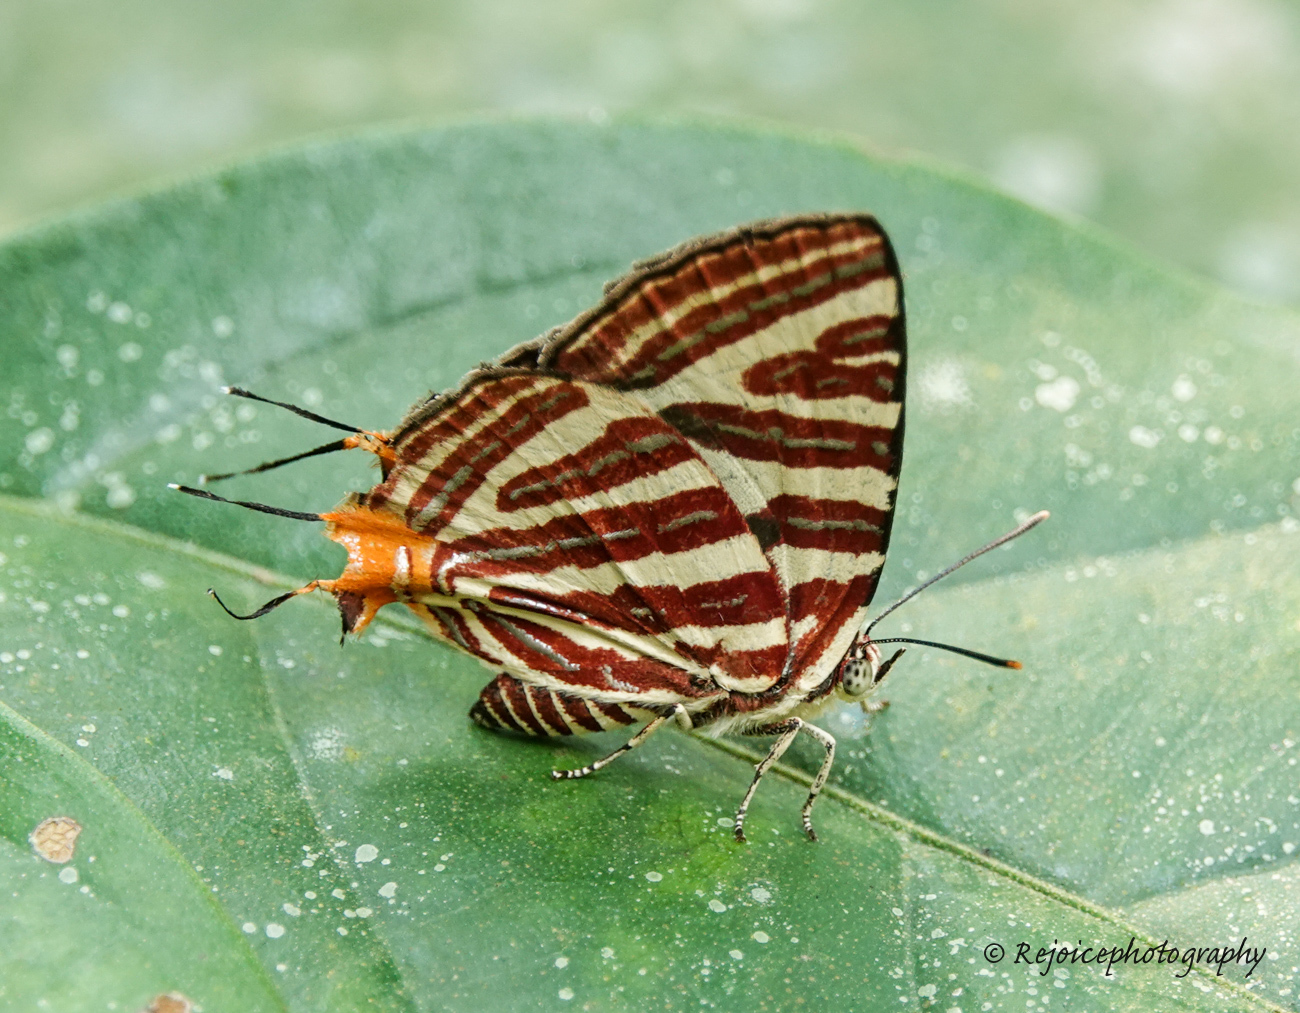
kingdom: Animalia
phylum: Arthropoda
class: Insecta
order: Lepidoptera
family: Lycaenidae
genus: Cigaritis
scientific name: Cigaritis lohita
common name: Long-banded silverline
